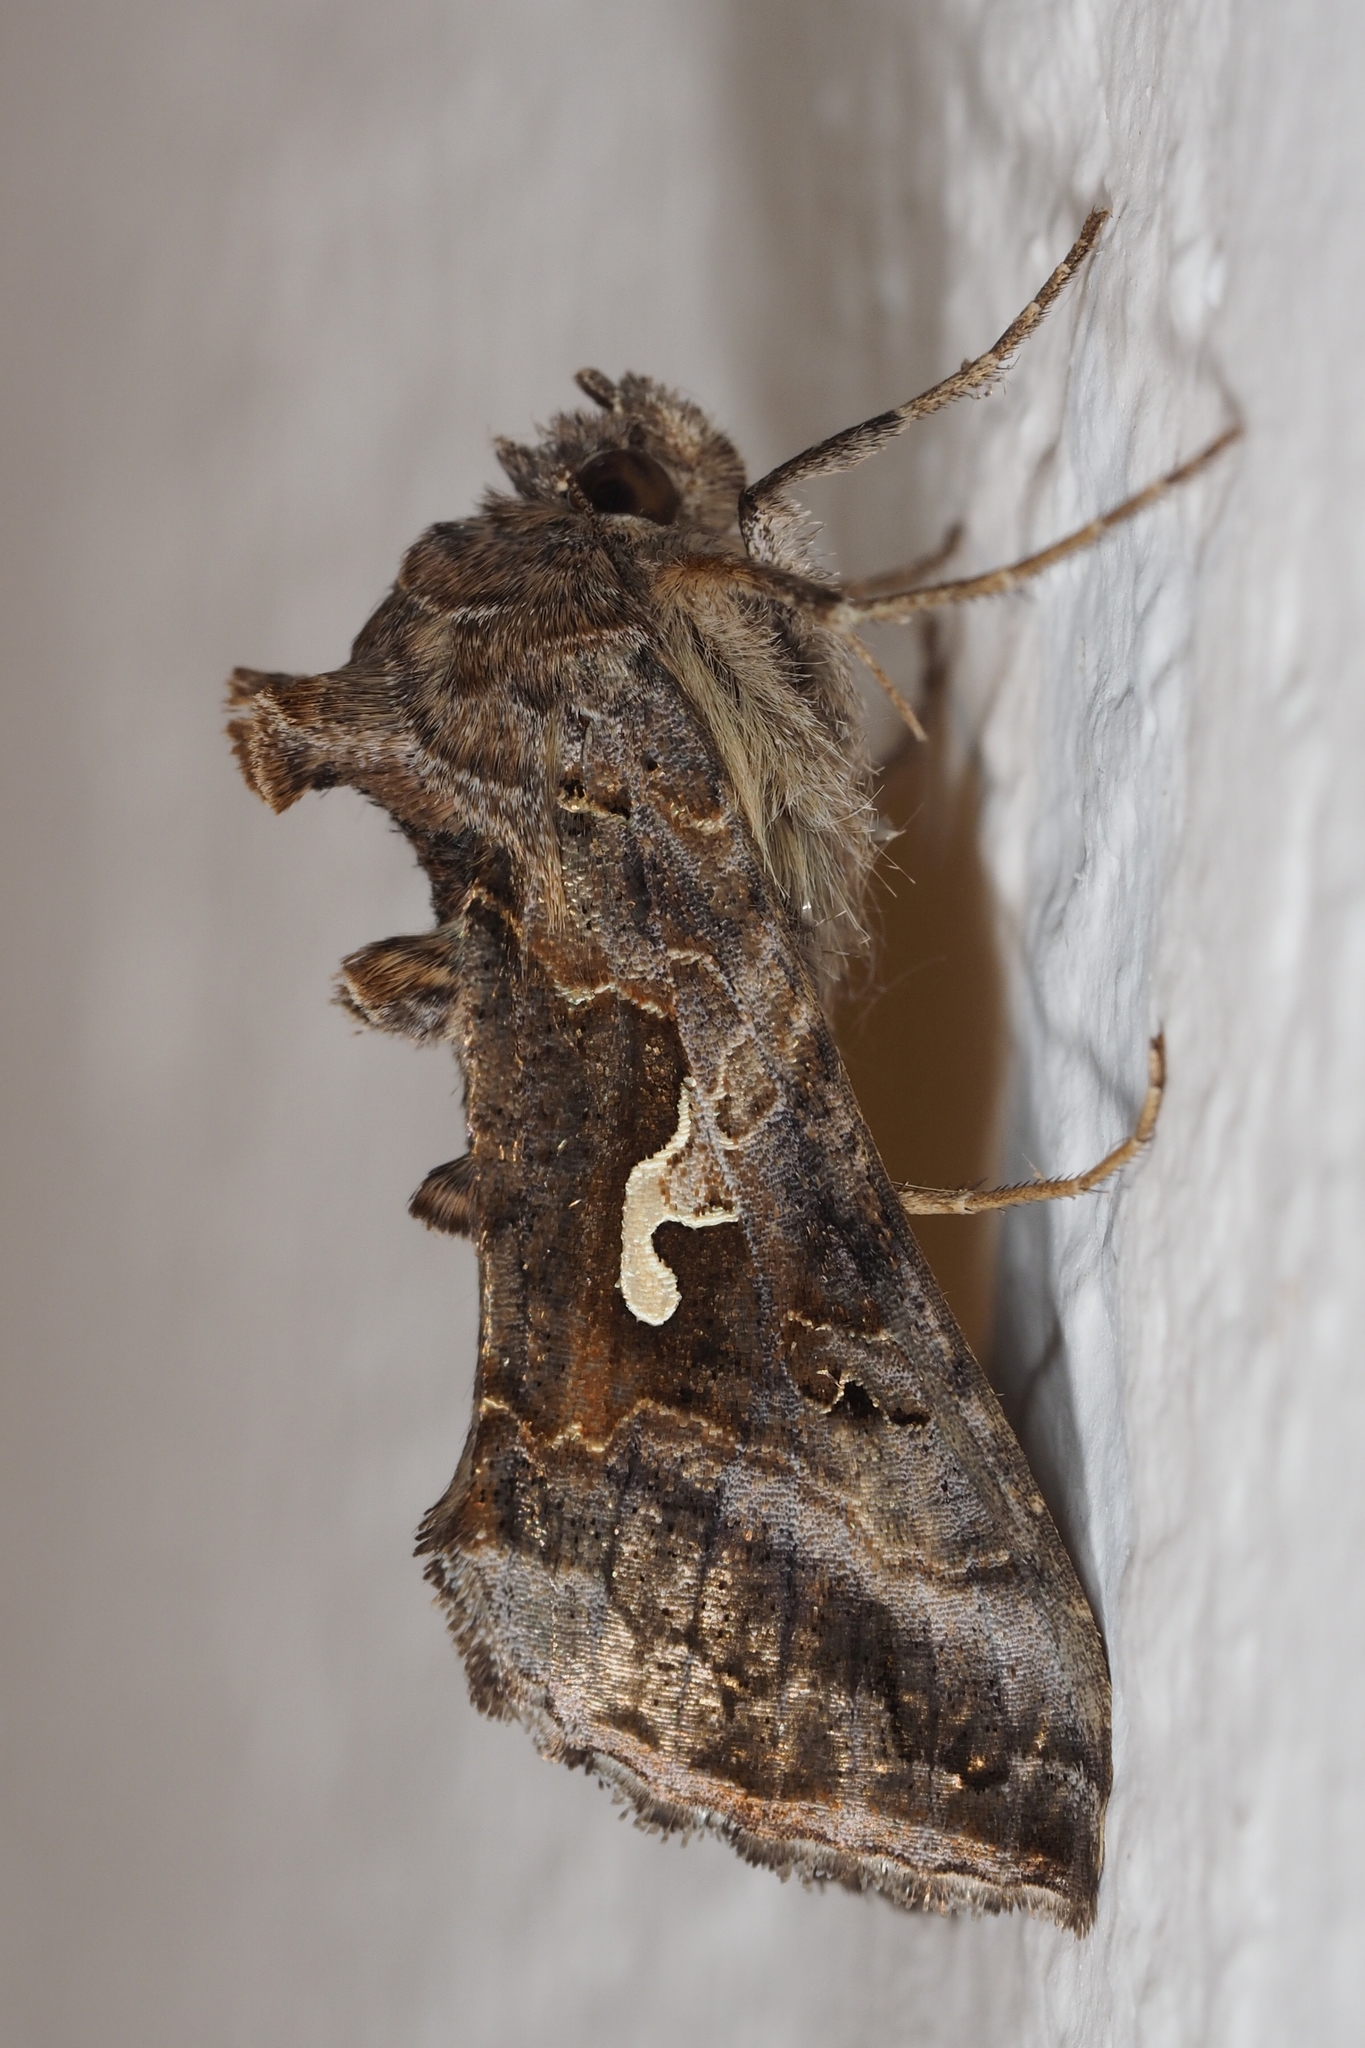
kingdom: Animalia
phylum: Arthropoda
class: Insecta
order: Lepidoptera
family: Noctuidae
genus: Autographa
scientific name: Autographa gamma
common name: Silver y
